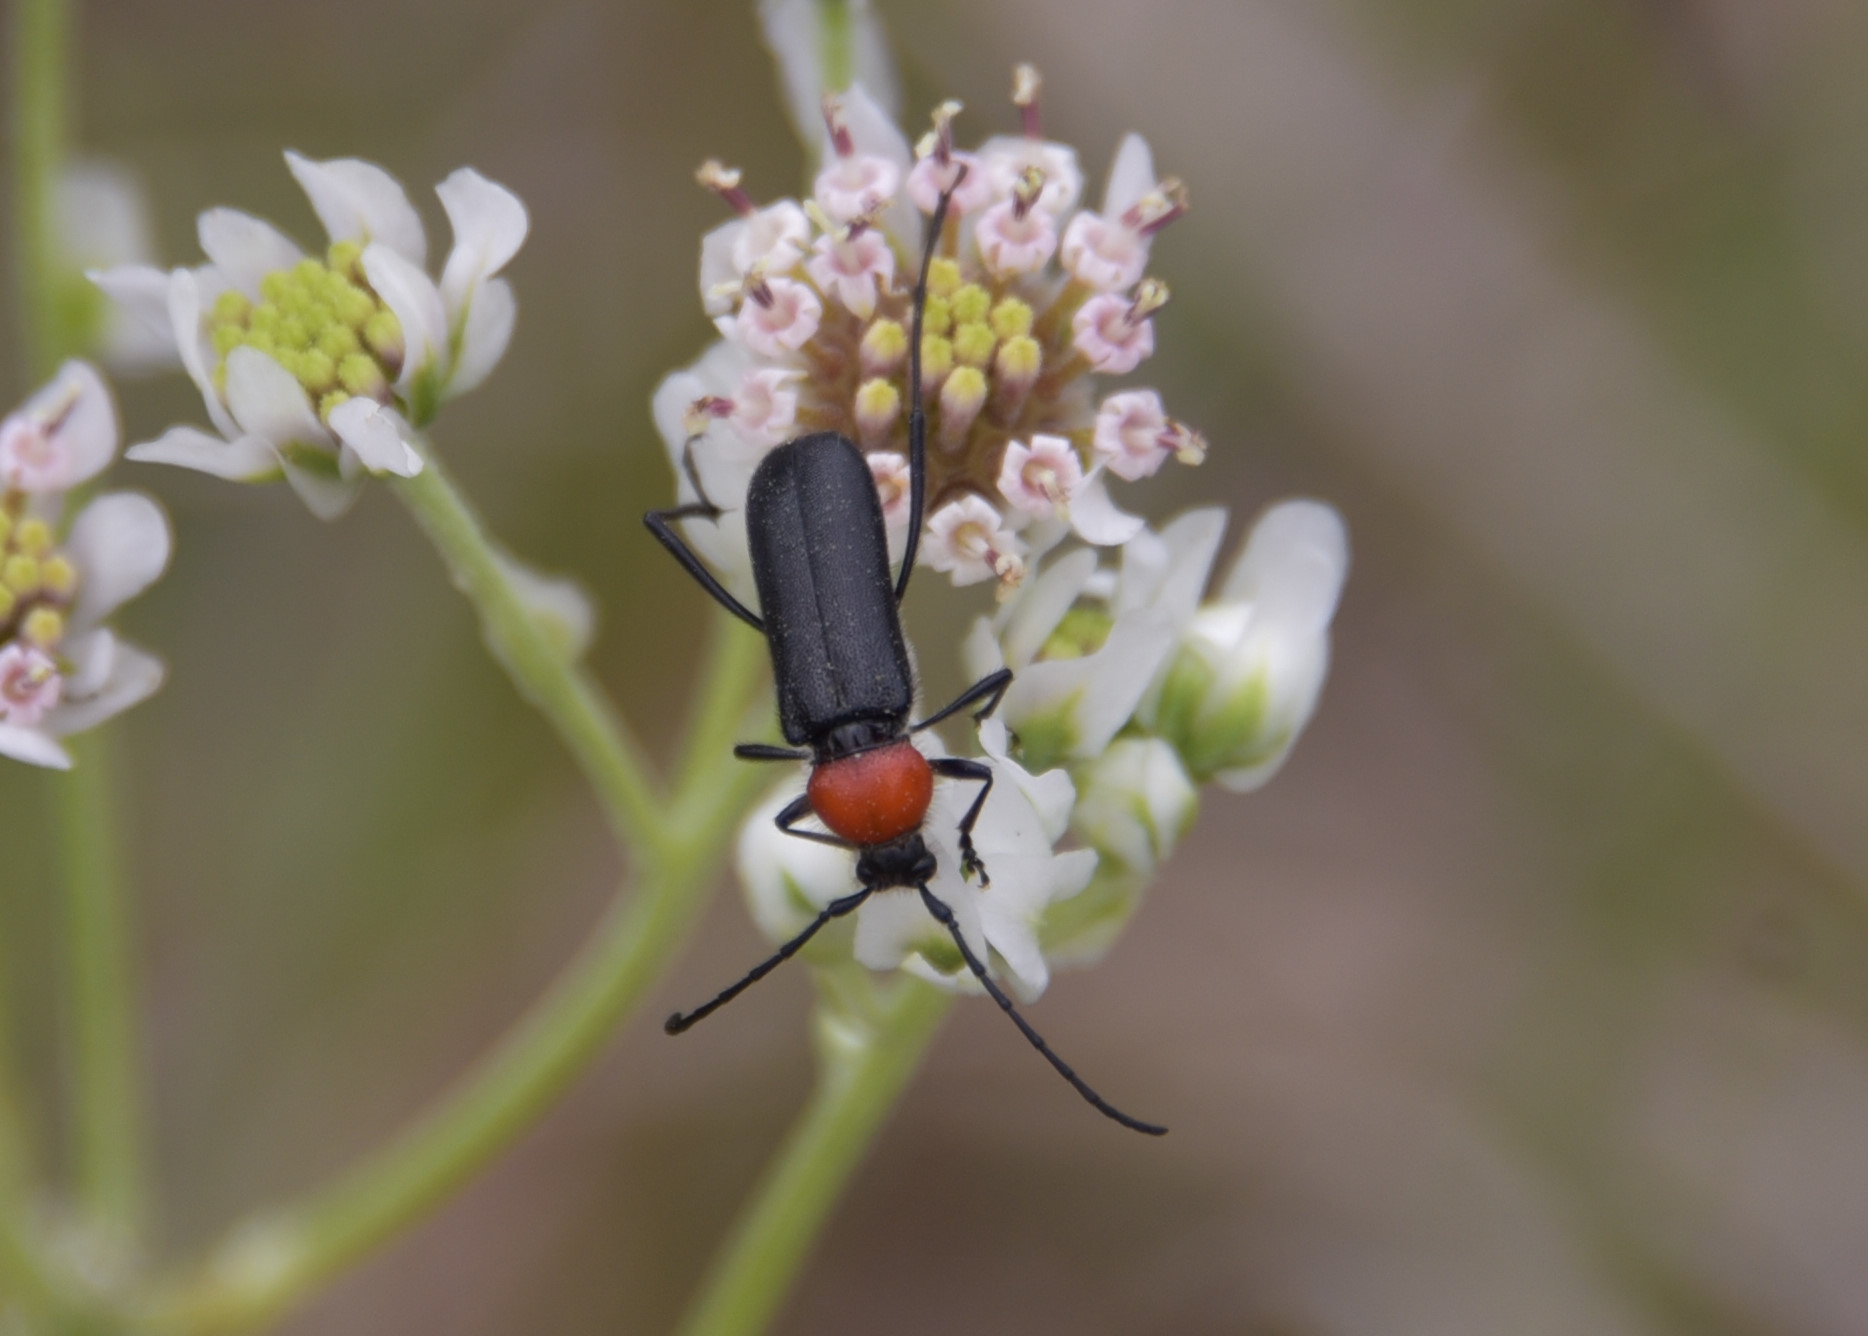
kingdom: Animalia
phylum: Arthropoda
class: Insecta
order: Coleoptera
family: Cerambycidae
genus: Batyle
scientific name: Batyle ignicollis
